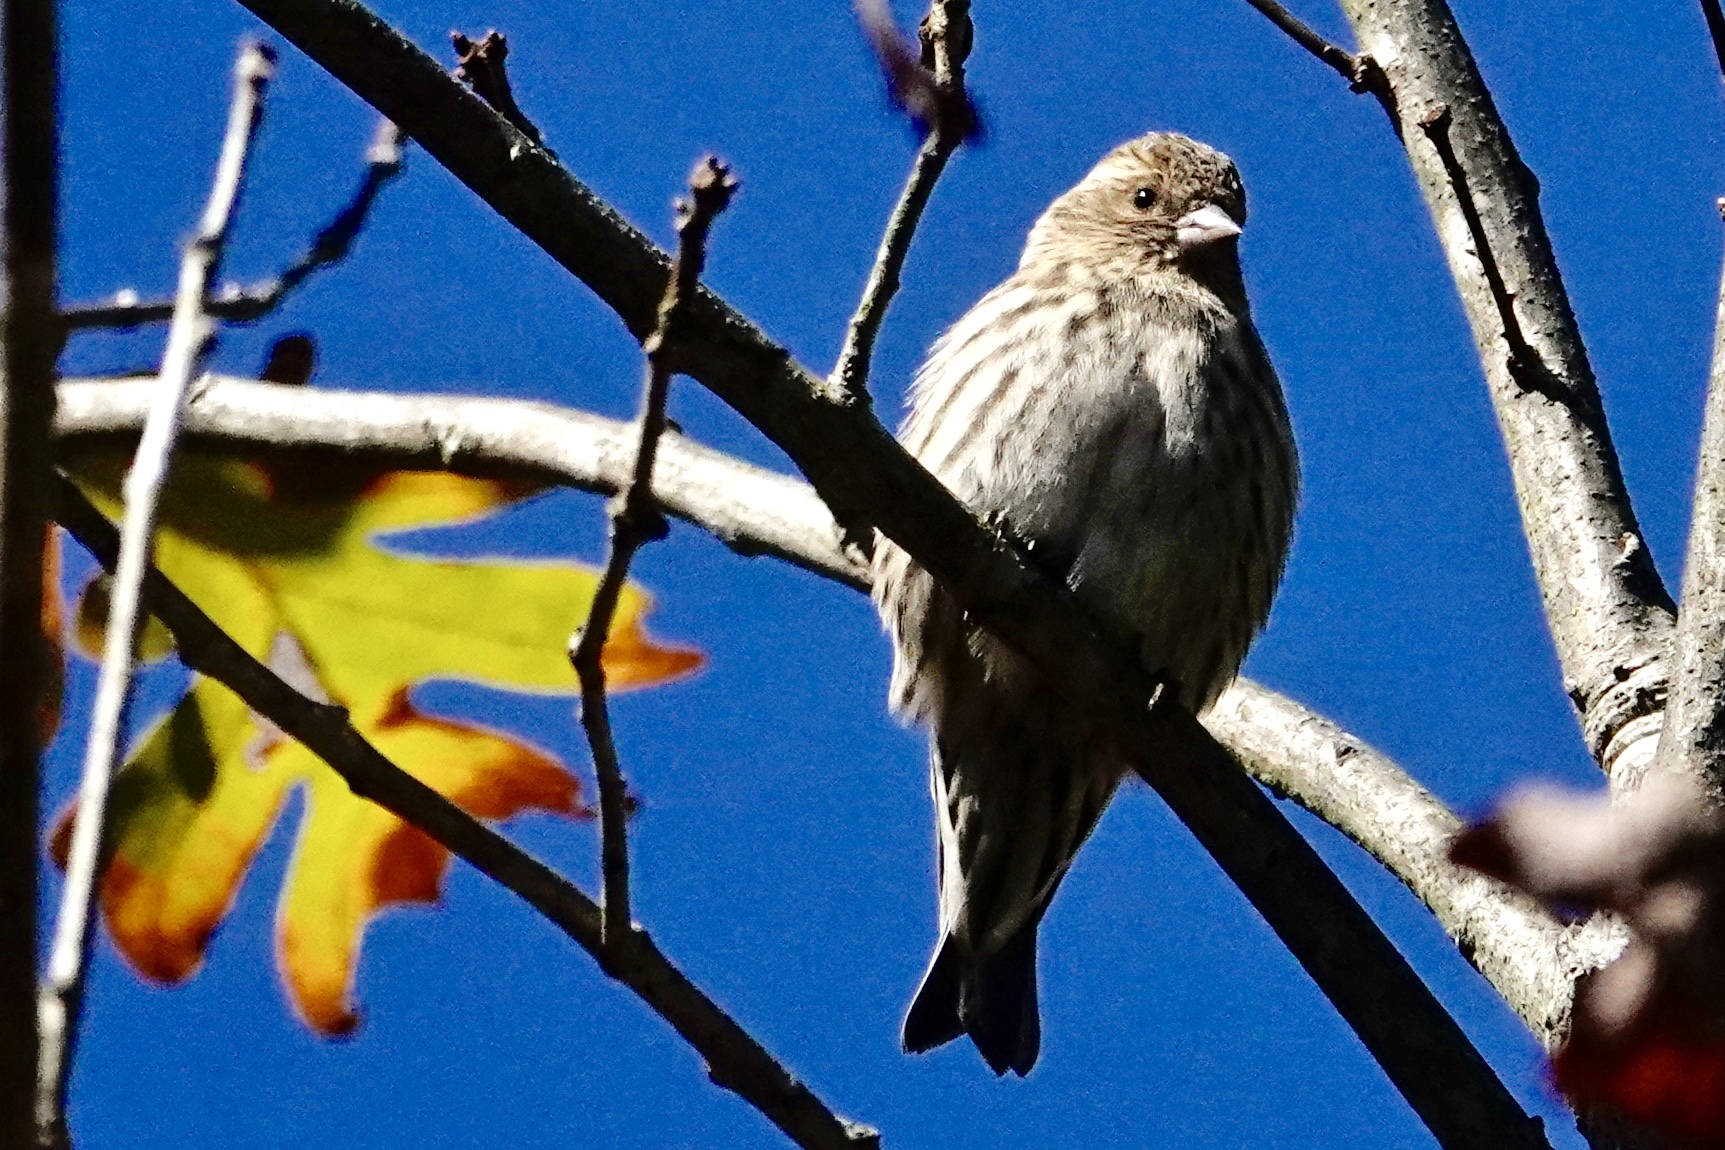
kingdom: Animalia
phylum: Chordata
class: Aves
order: Passeriformes
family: Fringillidae
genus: Spinus
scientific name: Spinus pinus
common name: Pine siskin
